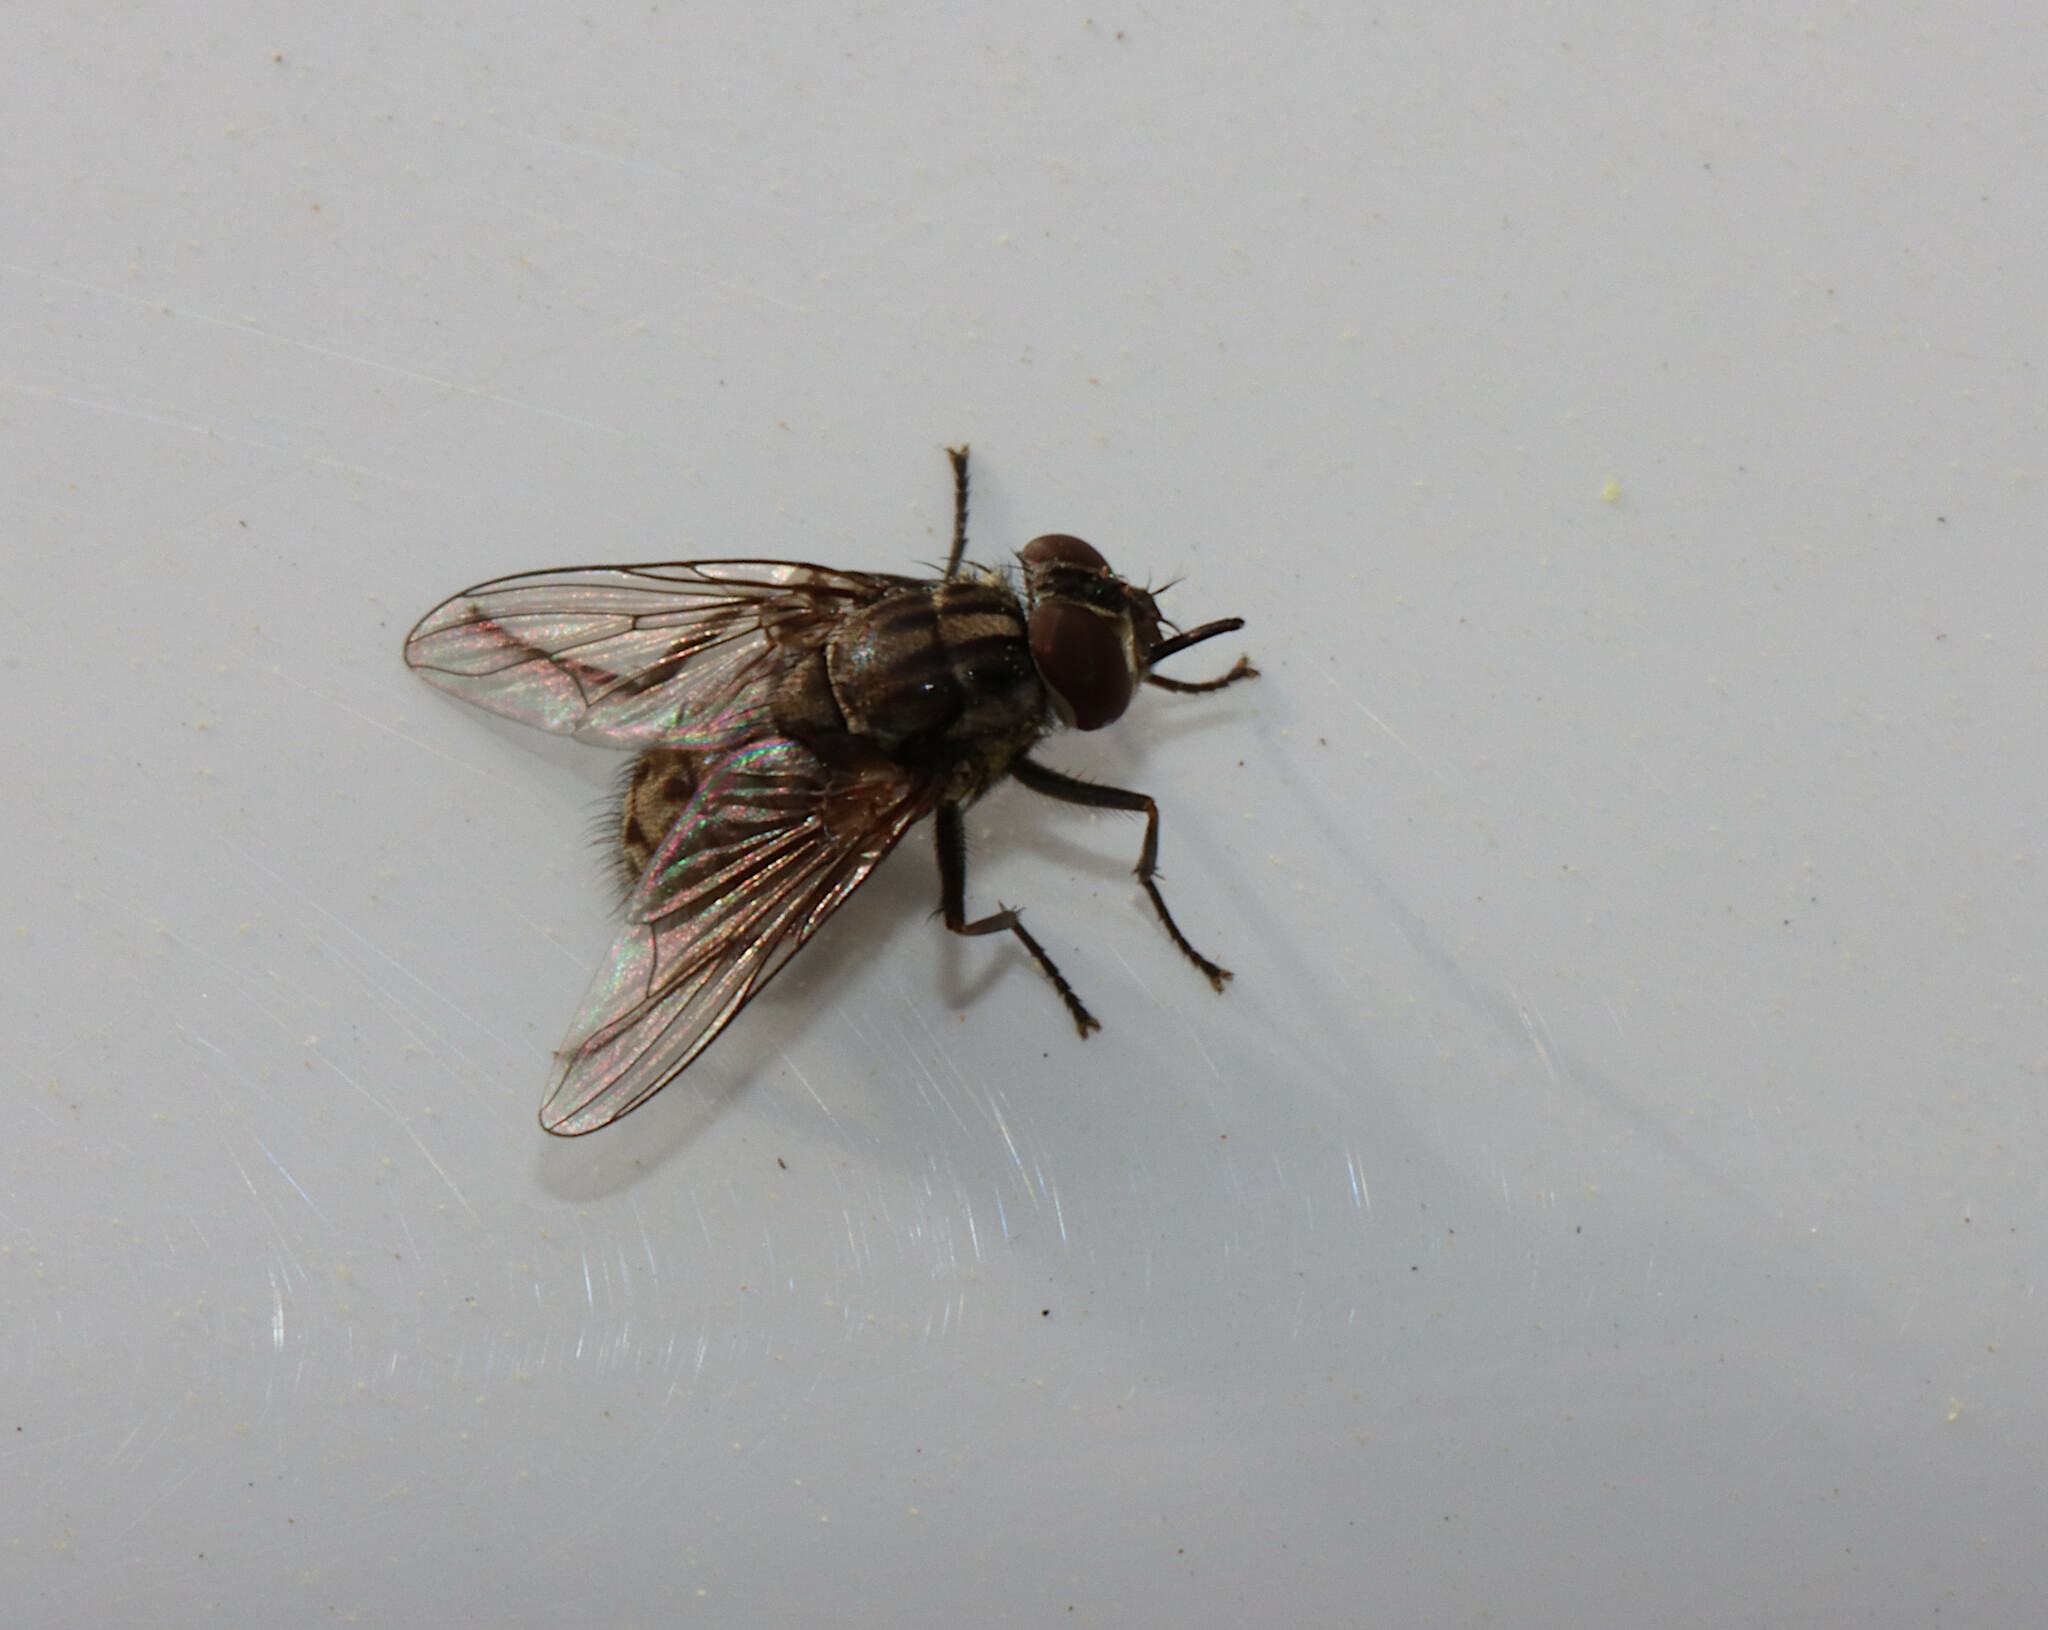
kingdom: Animalia
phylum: Arthropoda
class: Insecta
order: Diptera
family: Muscidae
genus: Stomoxys
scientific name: Stomoxys calcitrans
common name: Stable fly
